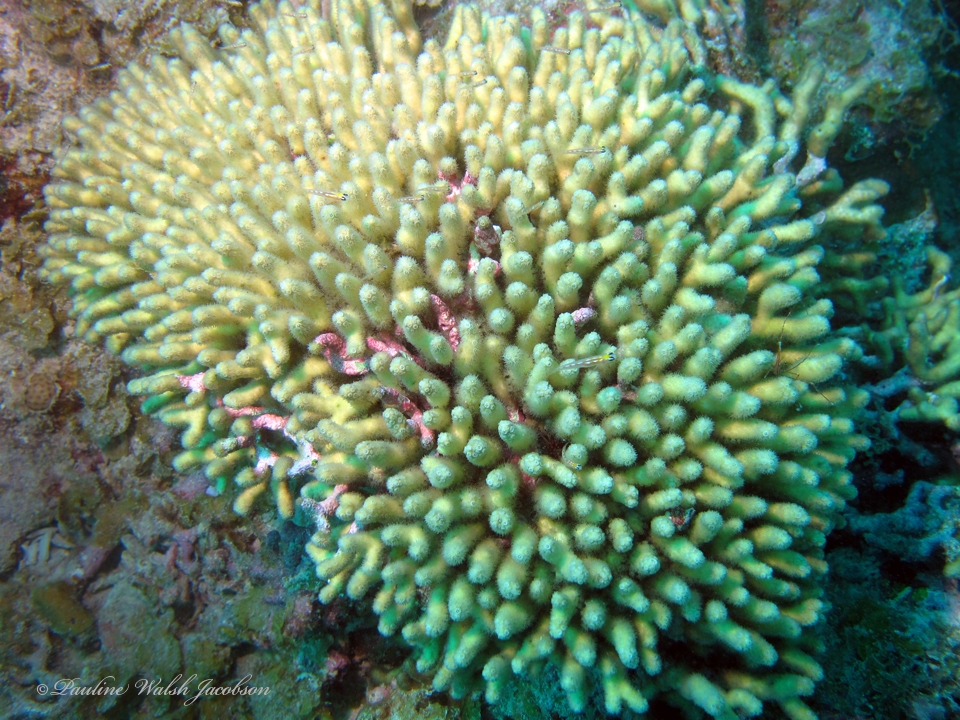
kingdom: Animalia
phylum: Cnidaria
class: Anthozoa
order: Scleractinia
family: Pocilloporidae
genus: Madracis
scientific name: Madracis auretenra
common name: Yellow pencil coral
